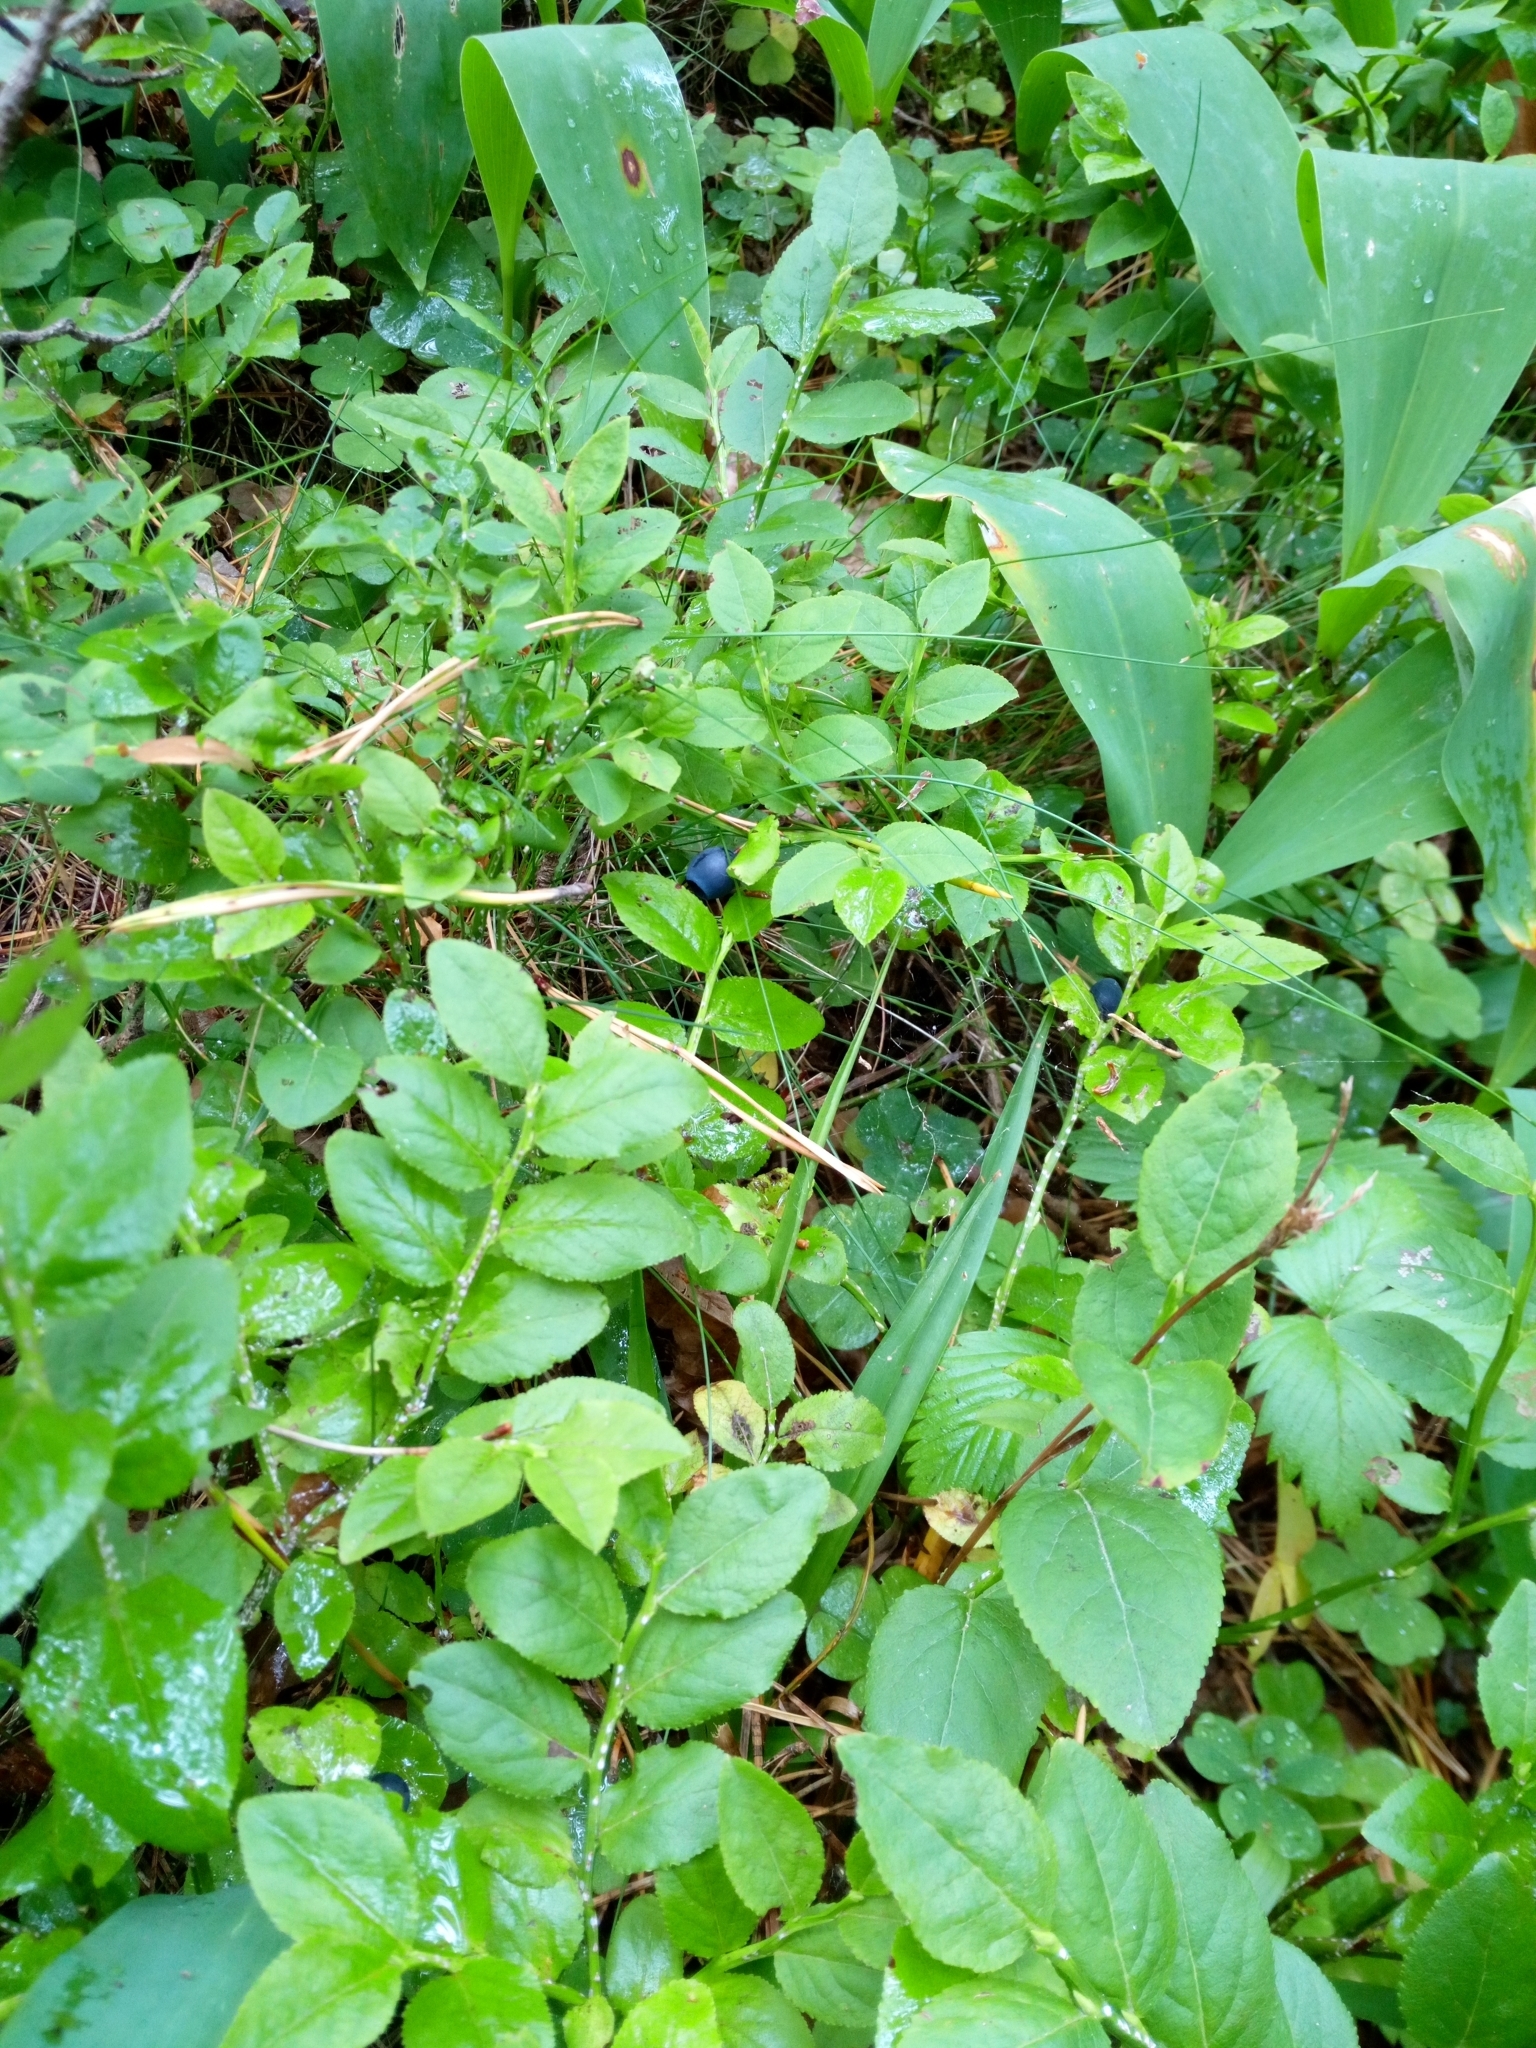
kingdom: Plantae
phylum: Tracheophyta
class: Magnoliopsida
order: Ericales
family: Ericaceae
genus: Vaccinium
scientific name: Vaccinium myrtillus
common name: Bilberry
